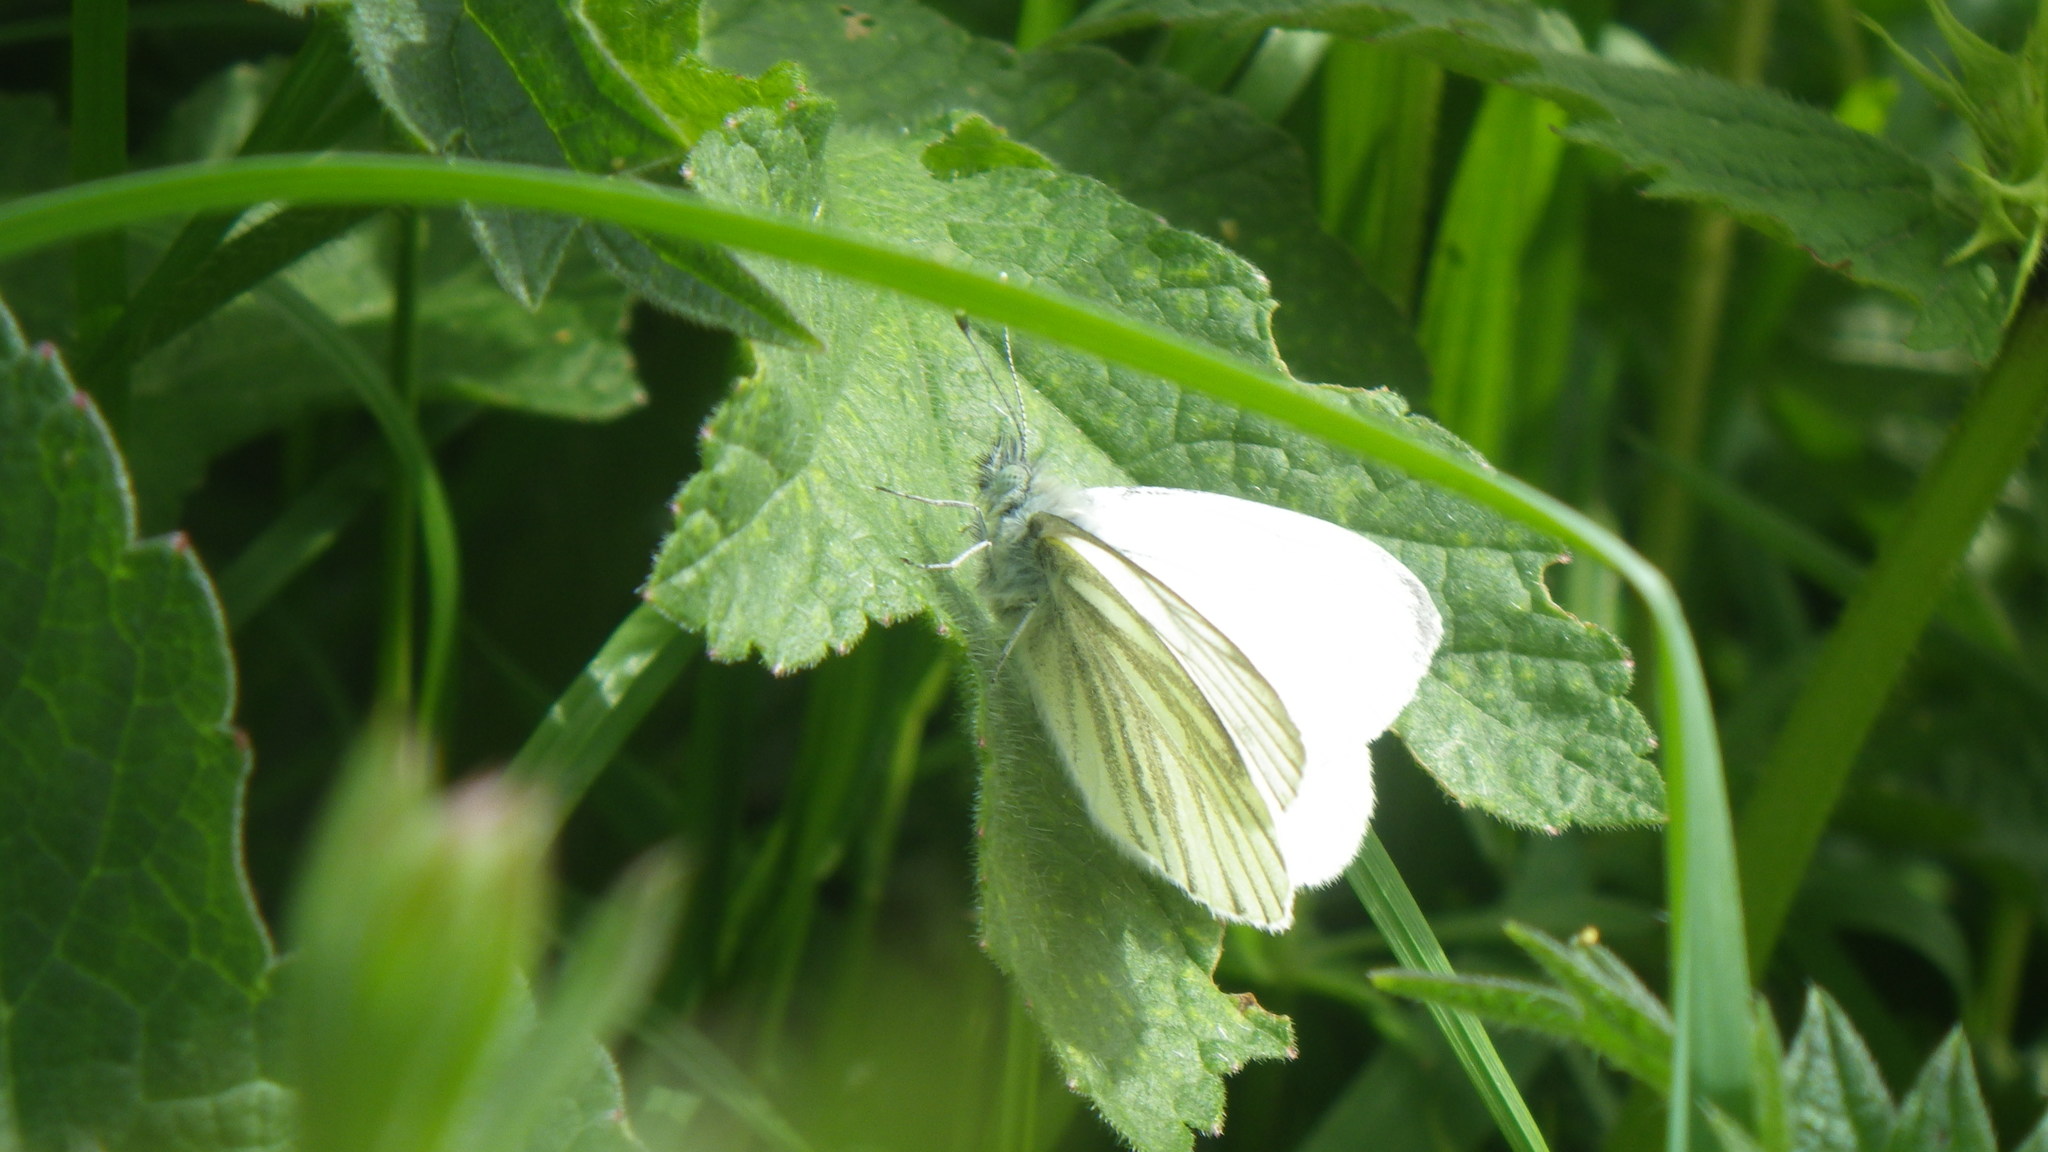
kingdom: Animalia
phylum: Arthropoda
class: Insecta
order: Lepidoptera
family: Pieridae
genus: Pieris
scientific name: Pieris napi
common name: Green-veined white
